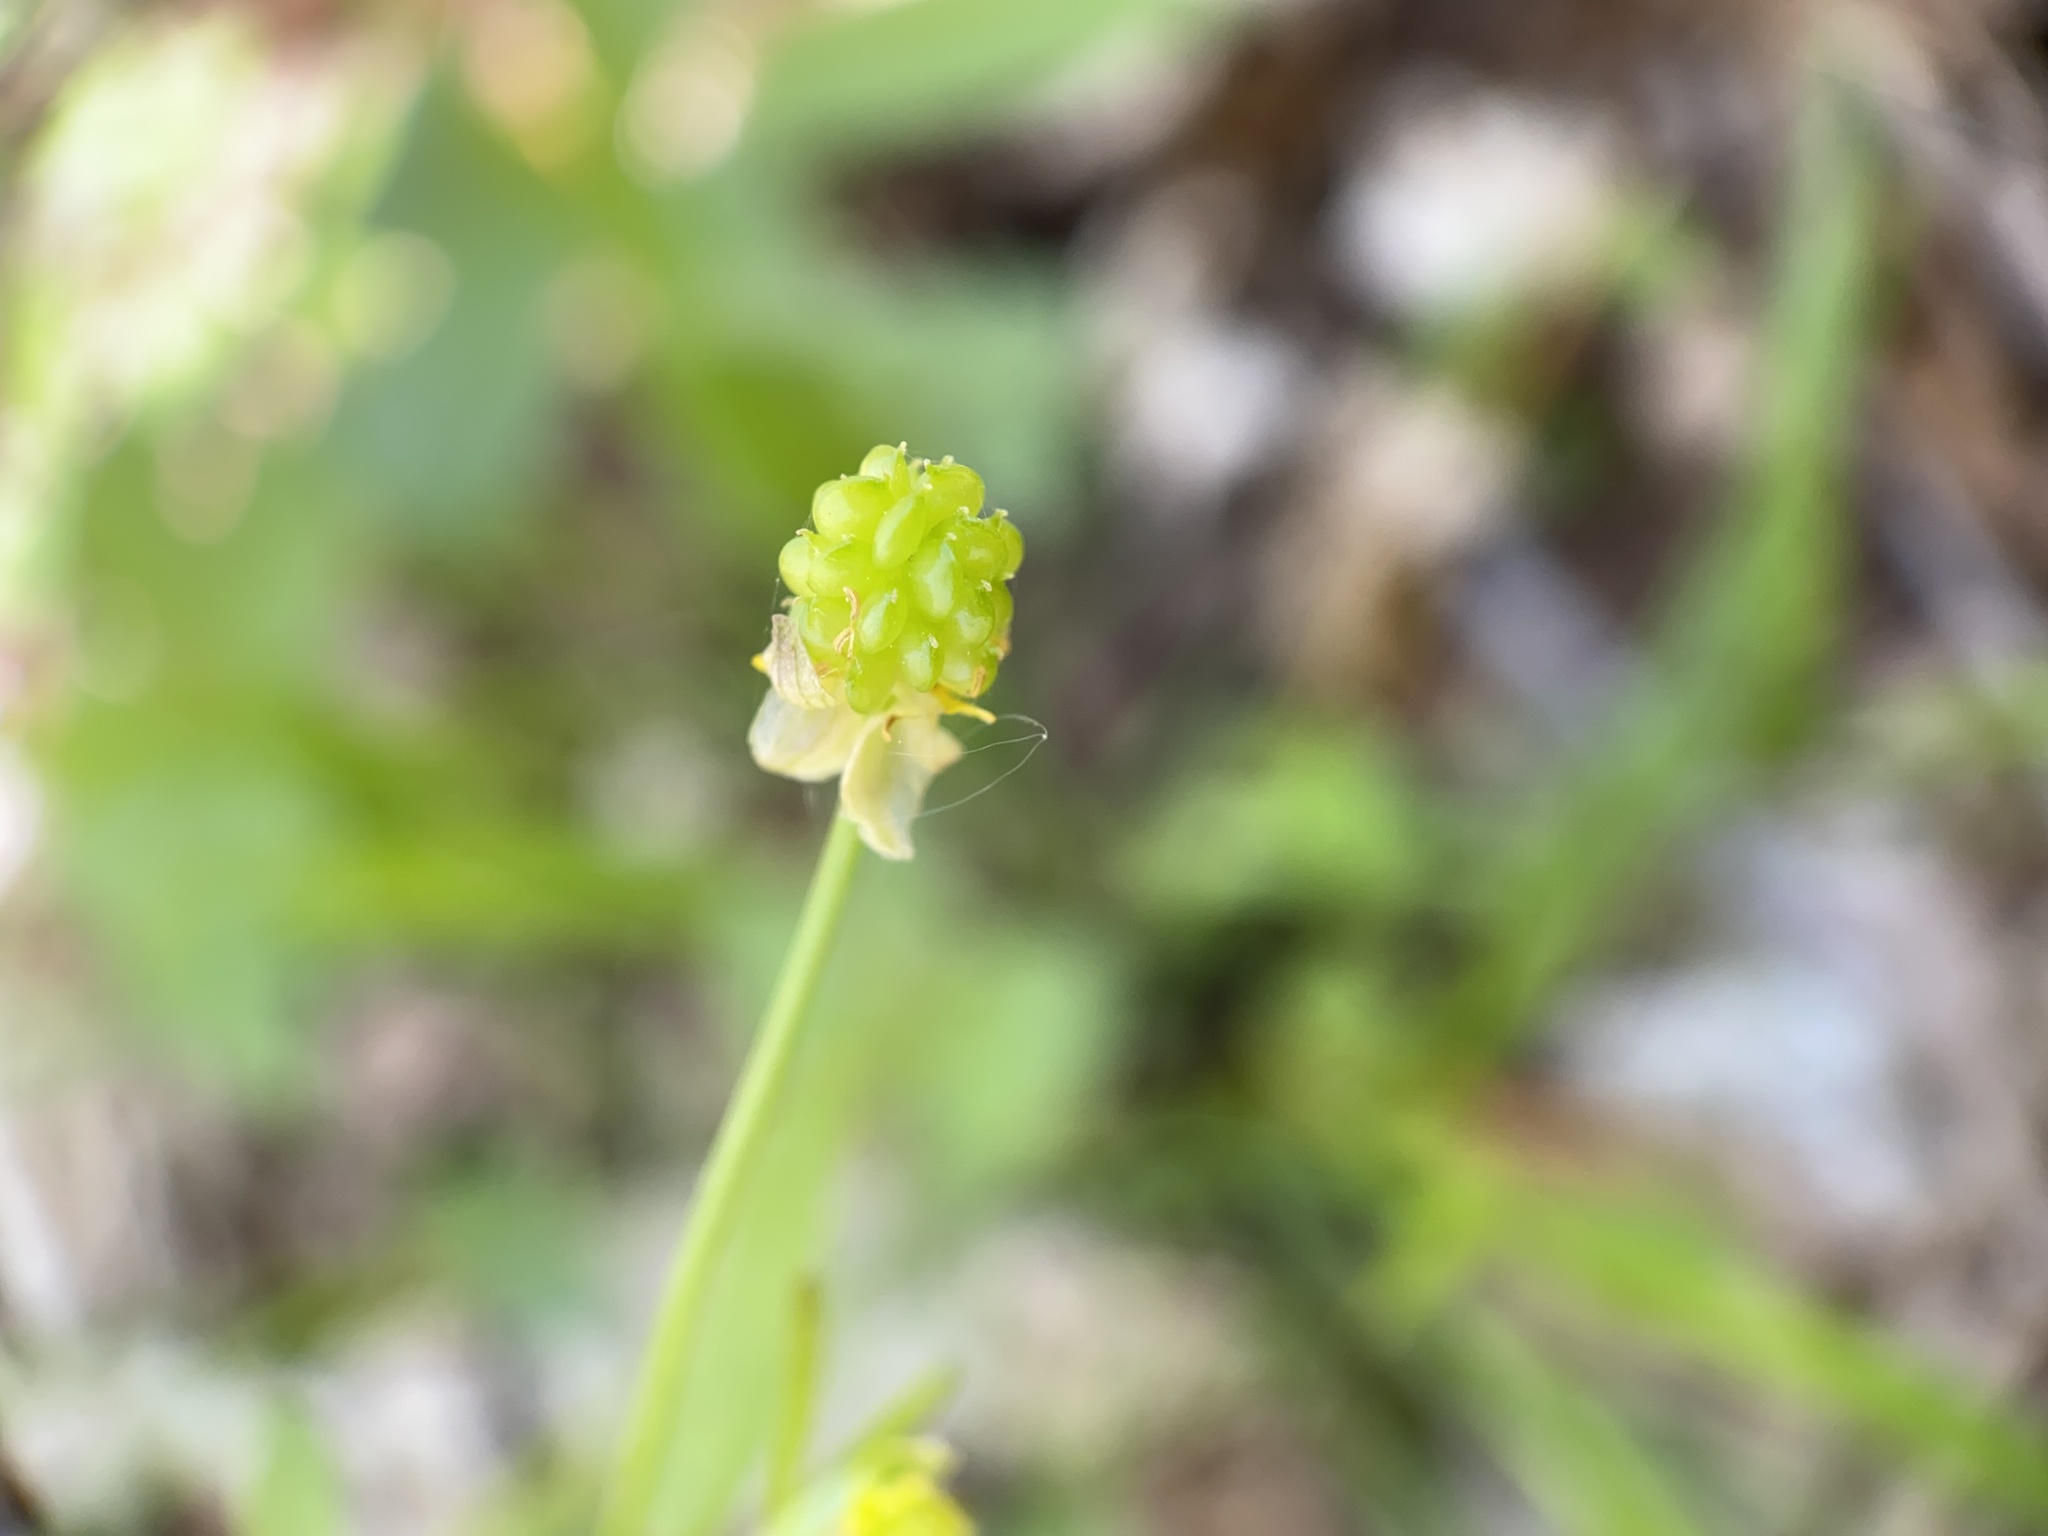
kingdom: Plantae
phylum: Tracheophyta
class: Magnoliopsida
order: Ranunculales
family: Ranunculaceae
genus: Ranunculus
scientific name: Ranunculus abortivus
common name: Early wood buttercup
